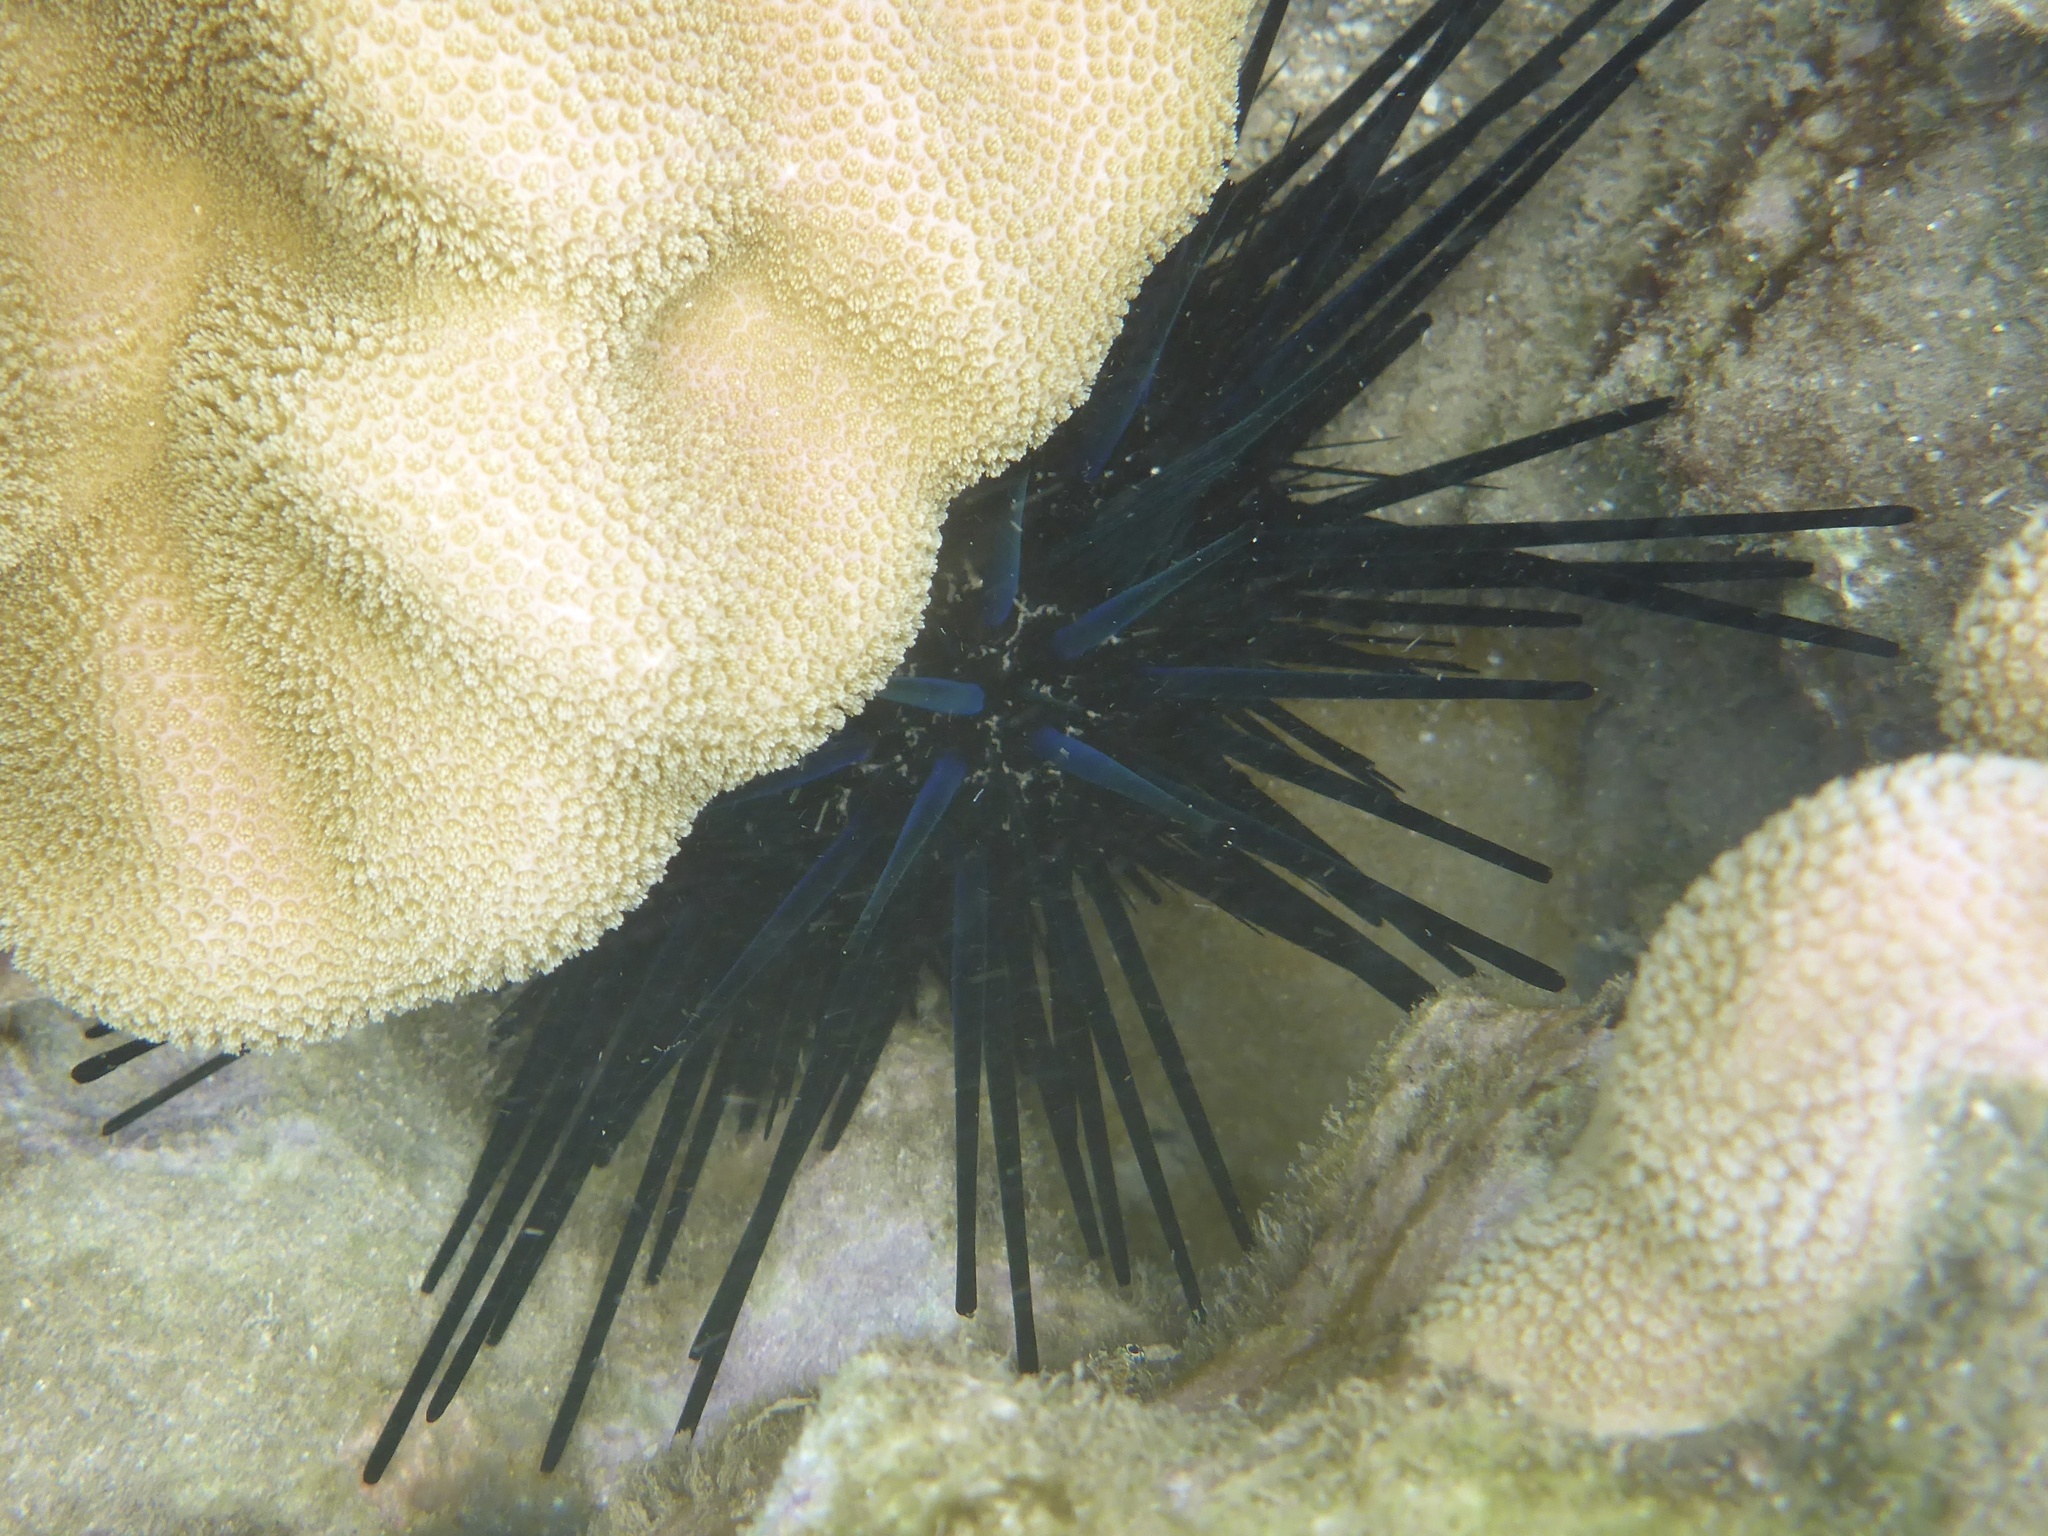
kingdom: Animalia
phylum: Echinodermata
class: Echinoidea
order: Diadematoida
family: Diadematidae
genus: Echinothrix
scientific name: Echinothrix diadema
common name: Schwarzer diademseeigel
